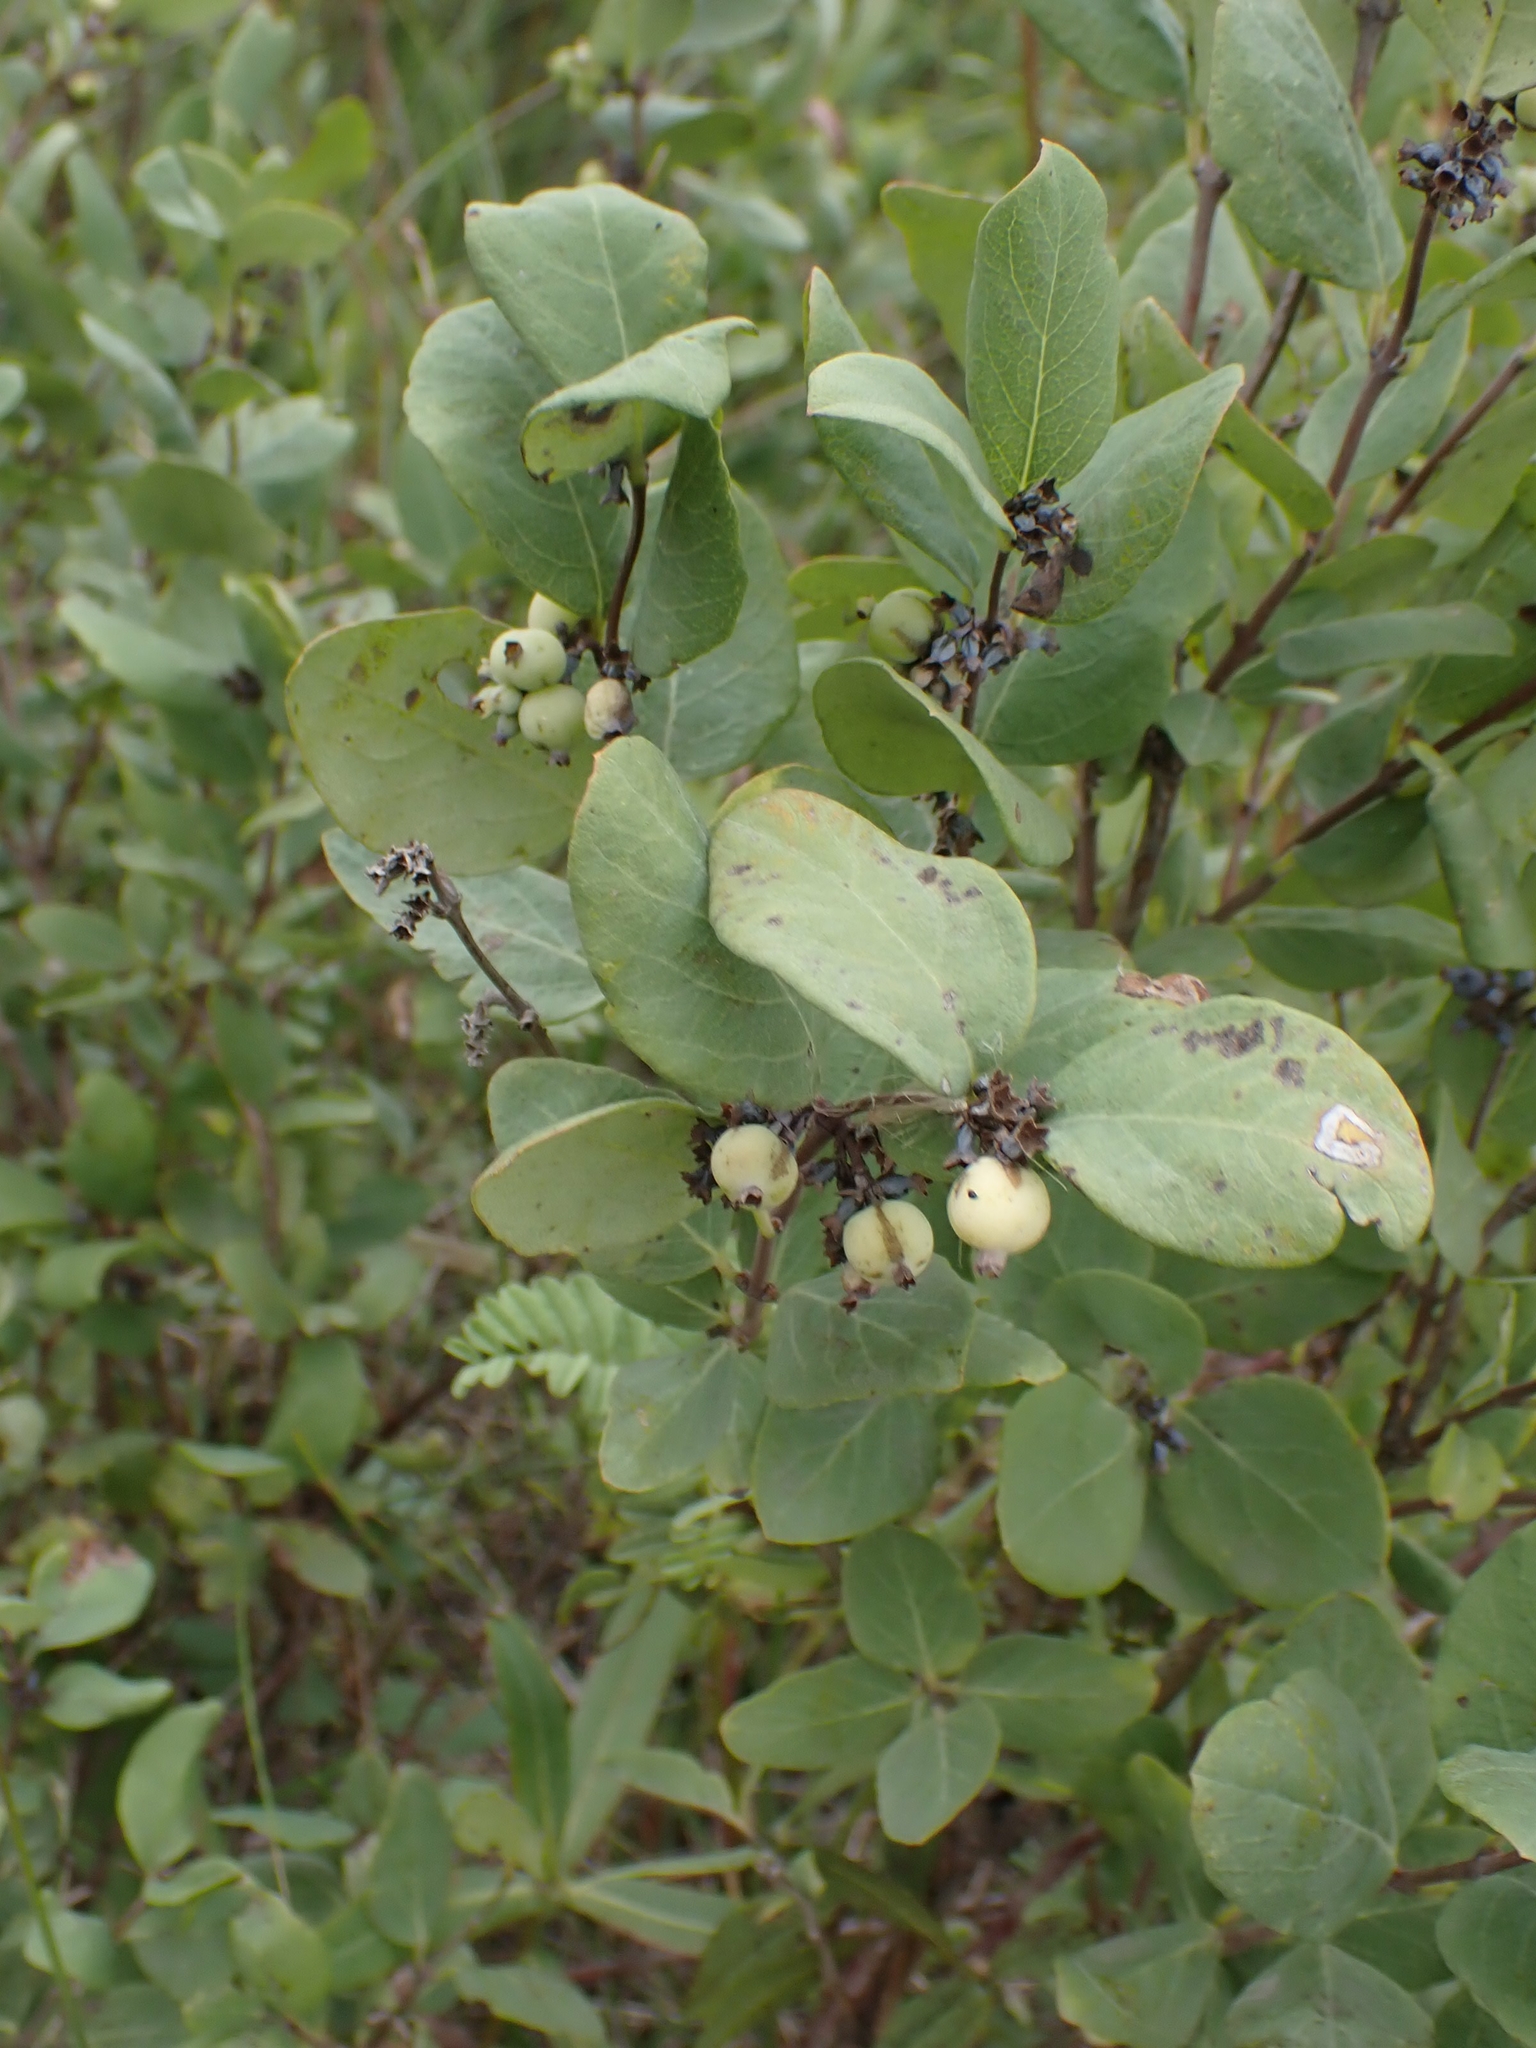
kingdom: Plantae
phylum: Tracheophyta
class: Magnoliopsida
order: Dipsacales
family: Caprifoliaceae
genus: Symphoricarpos
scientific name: Symphoricarpos occidentalis
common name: Wolfberry
